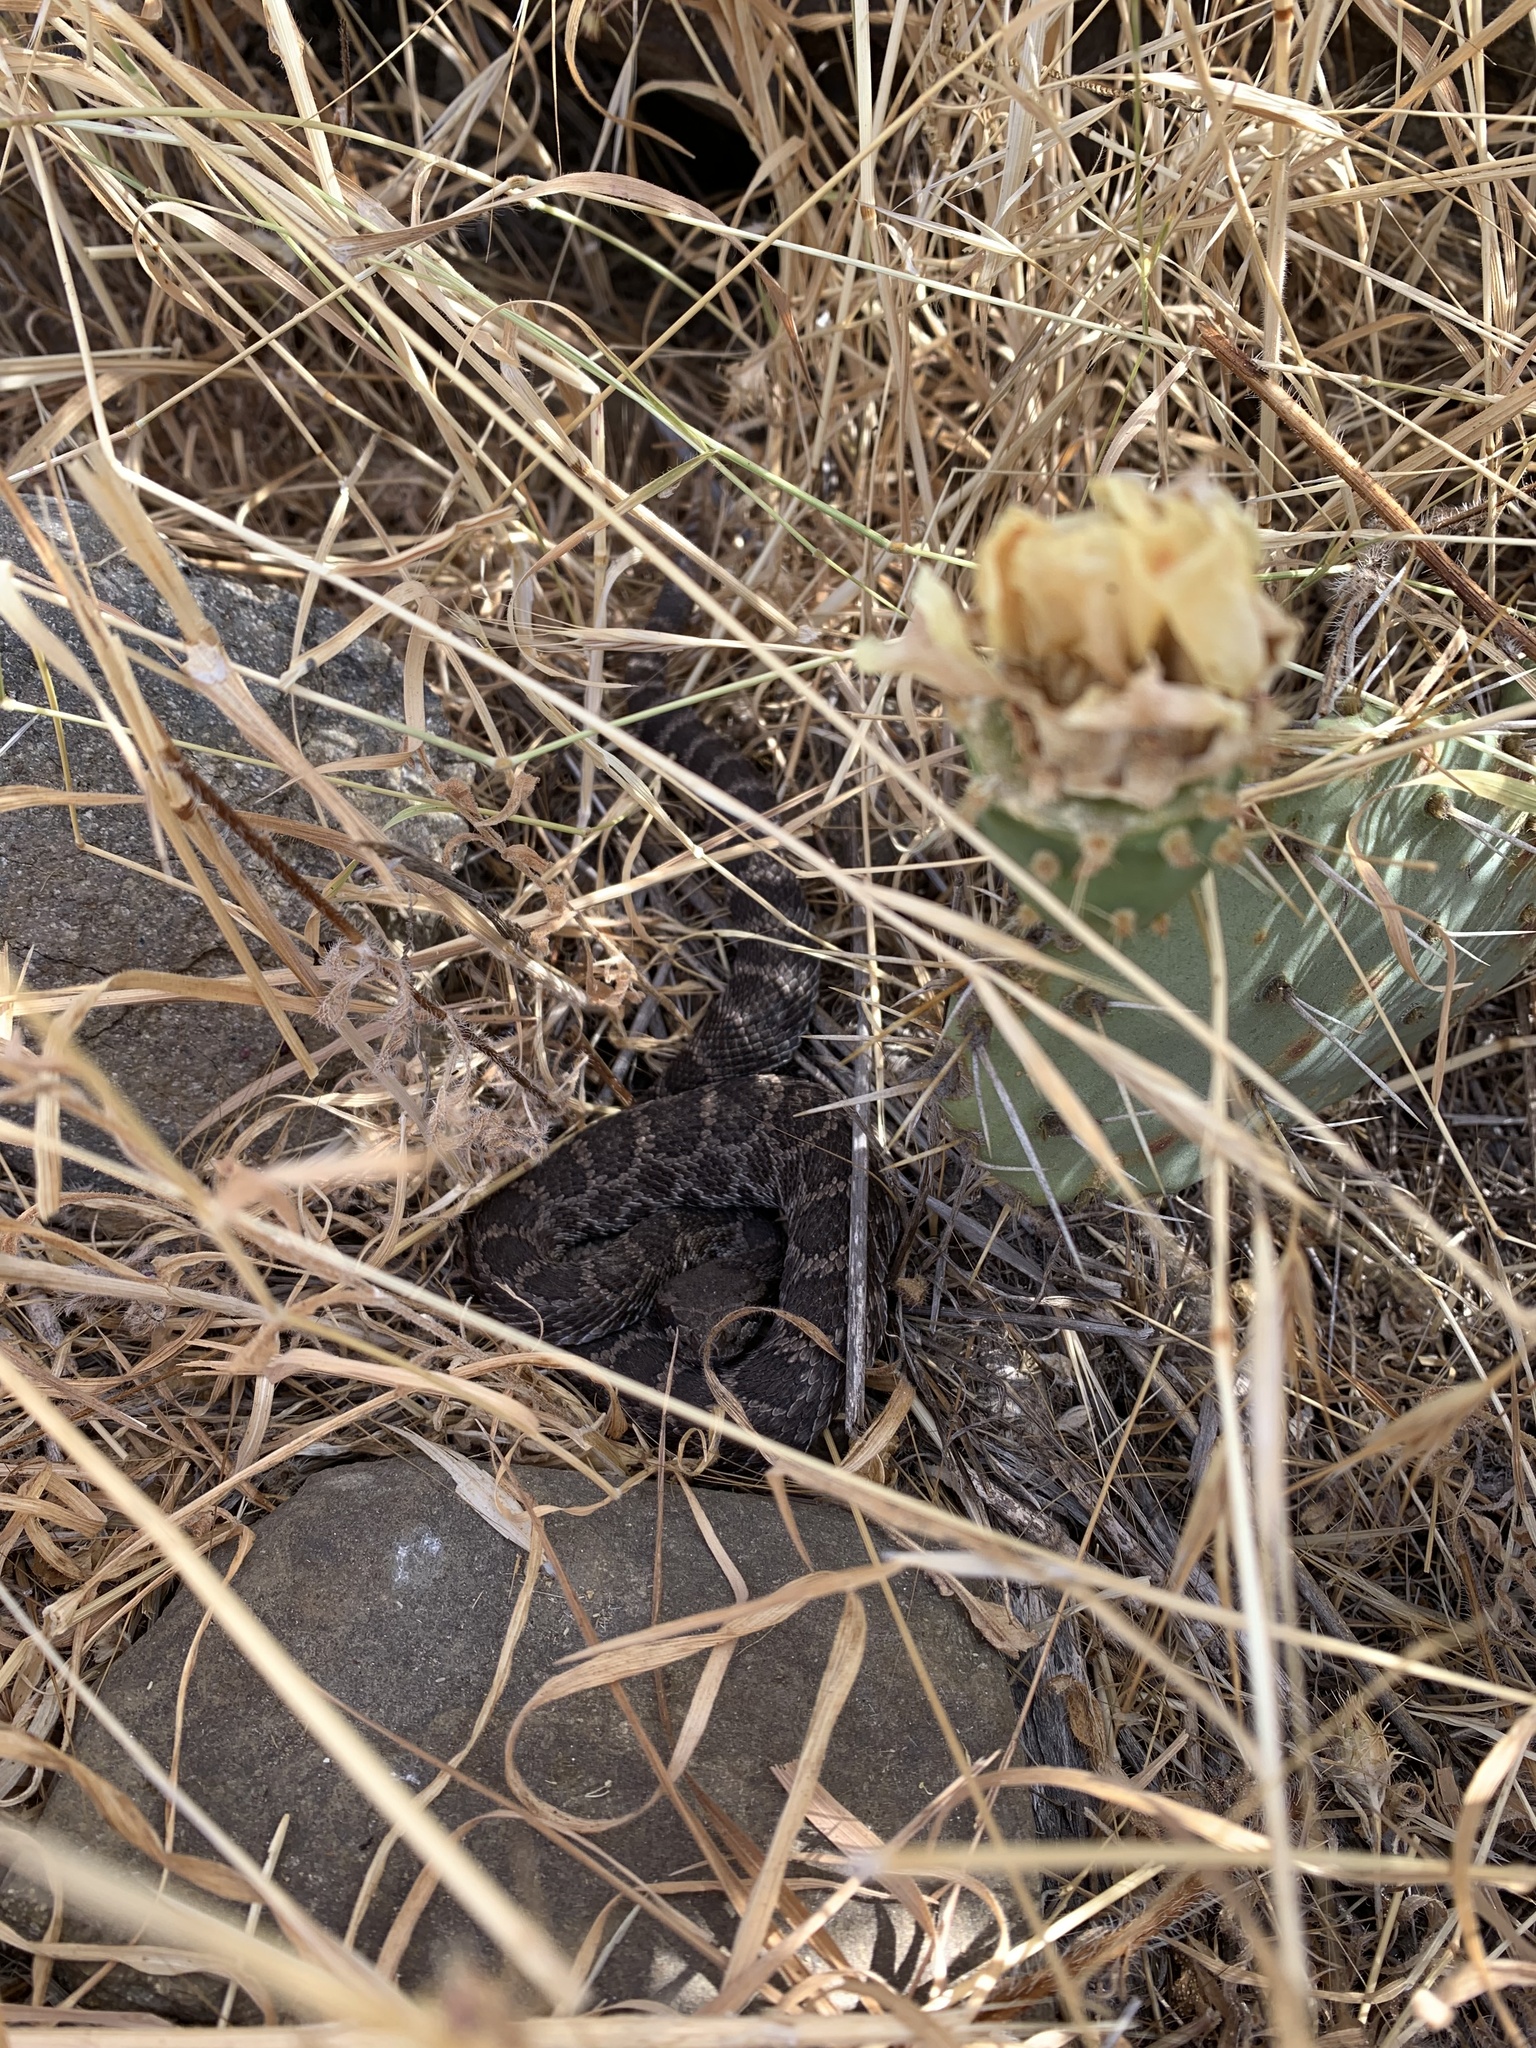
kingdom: Animalia
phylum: Chordata
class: Squamata
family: Viperidae
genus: Crotalus
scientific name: Crotalus oreganus
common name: Abyssus
